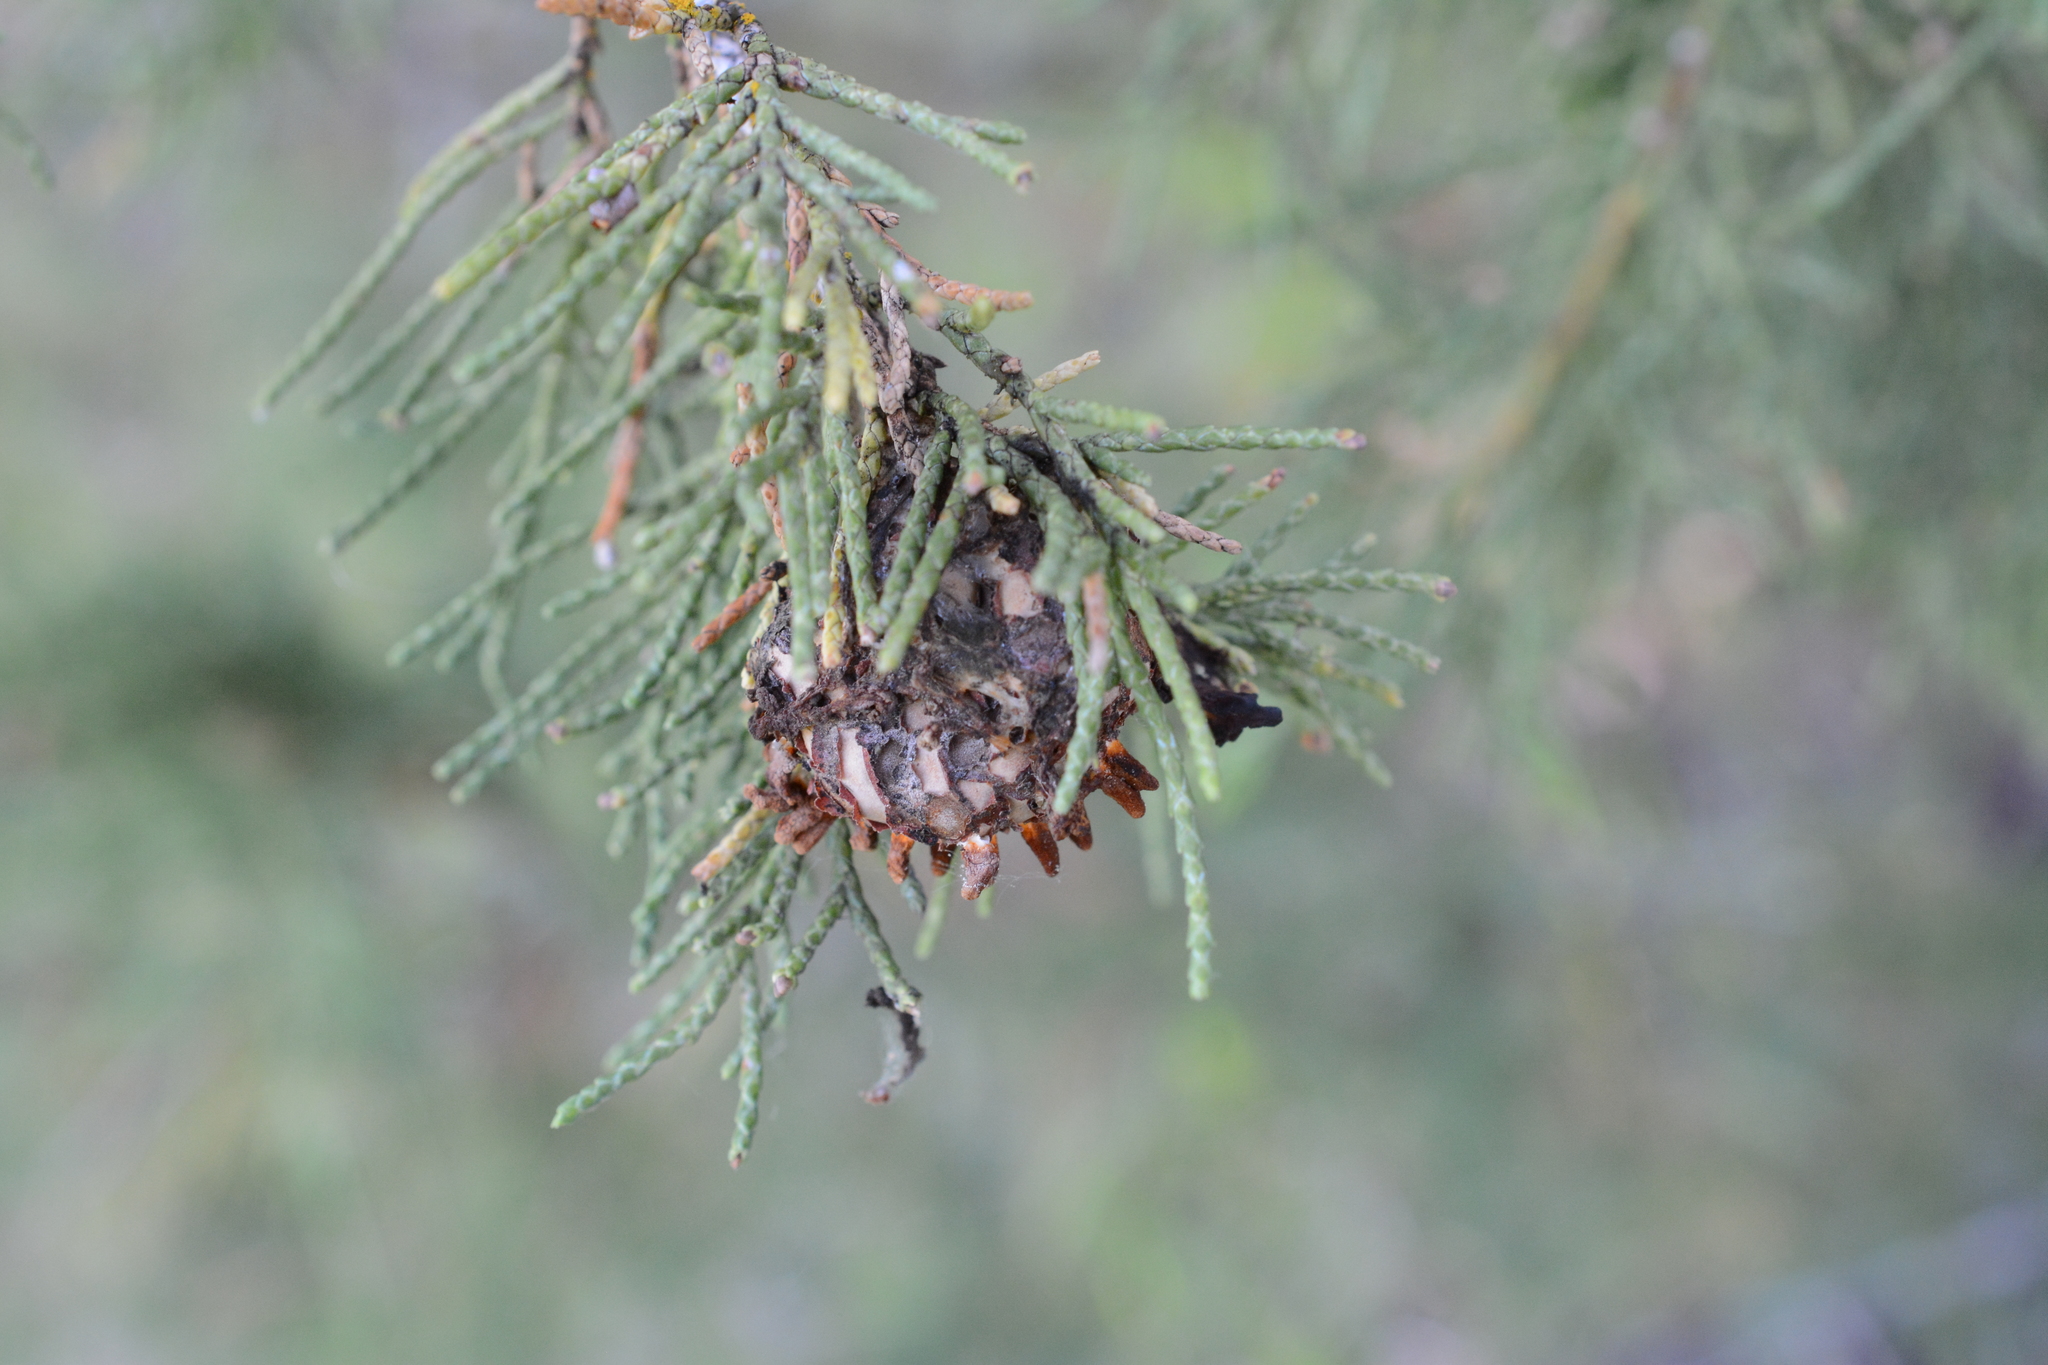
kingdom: Fungi
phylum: Basidiomycota
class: Pucciniomycetes
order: Pucciniales
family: Gymnosporangiaceae
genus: Gymnosporangium
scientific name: Gymnosporangium juniperi-virginianae
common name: Juniper-apple rust
